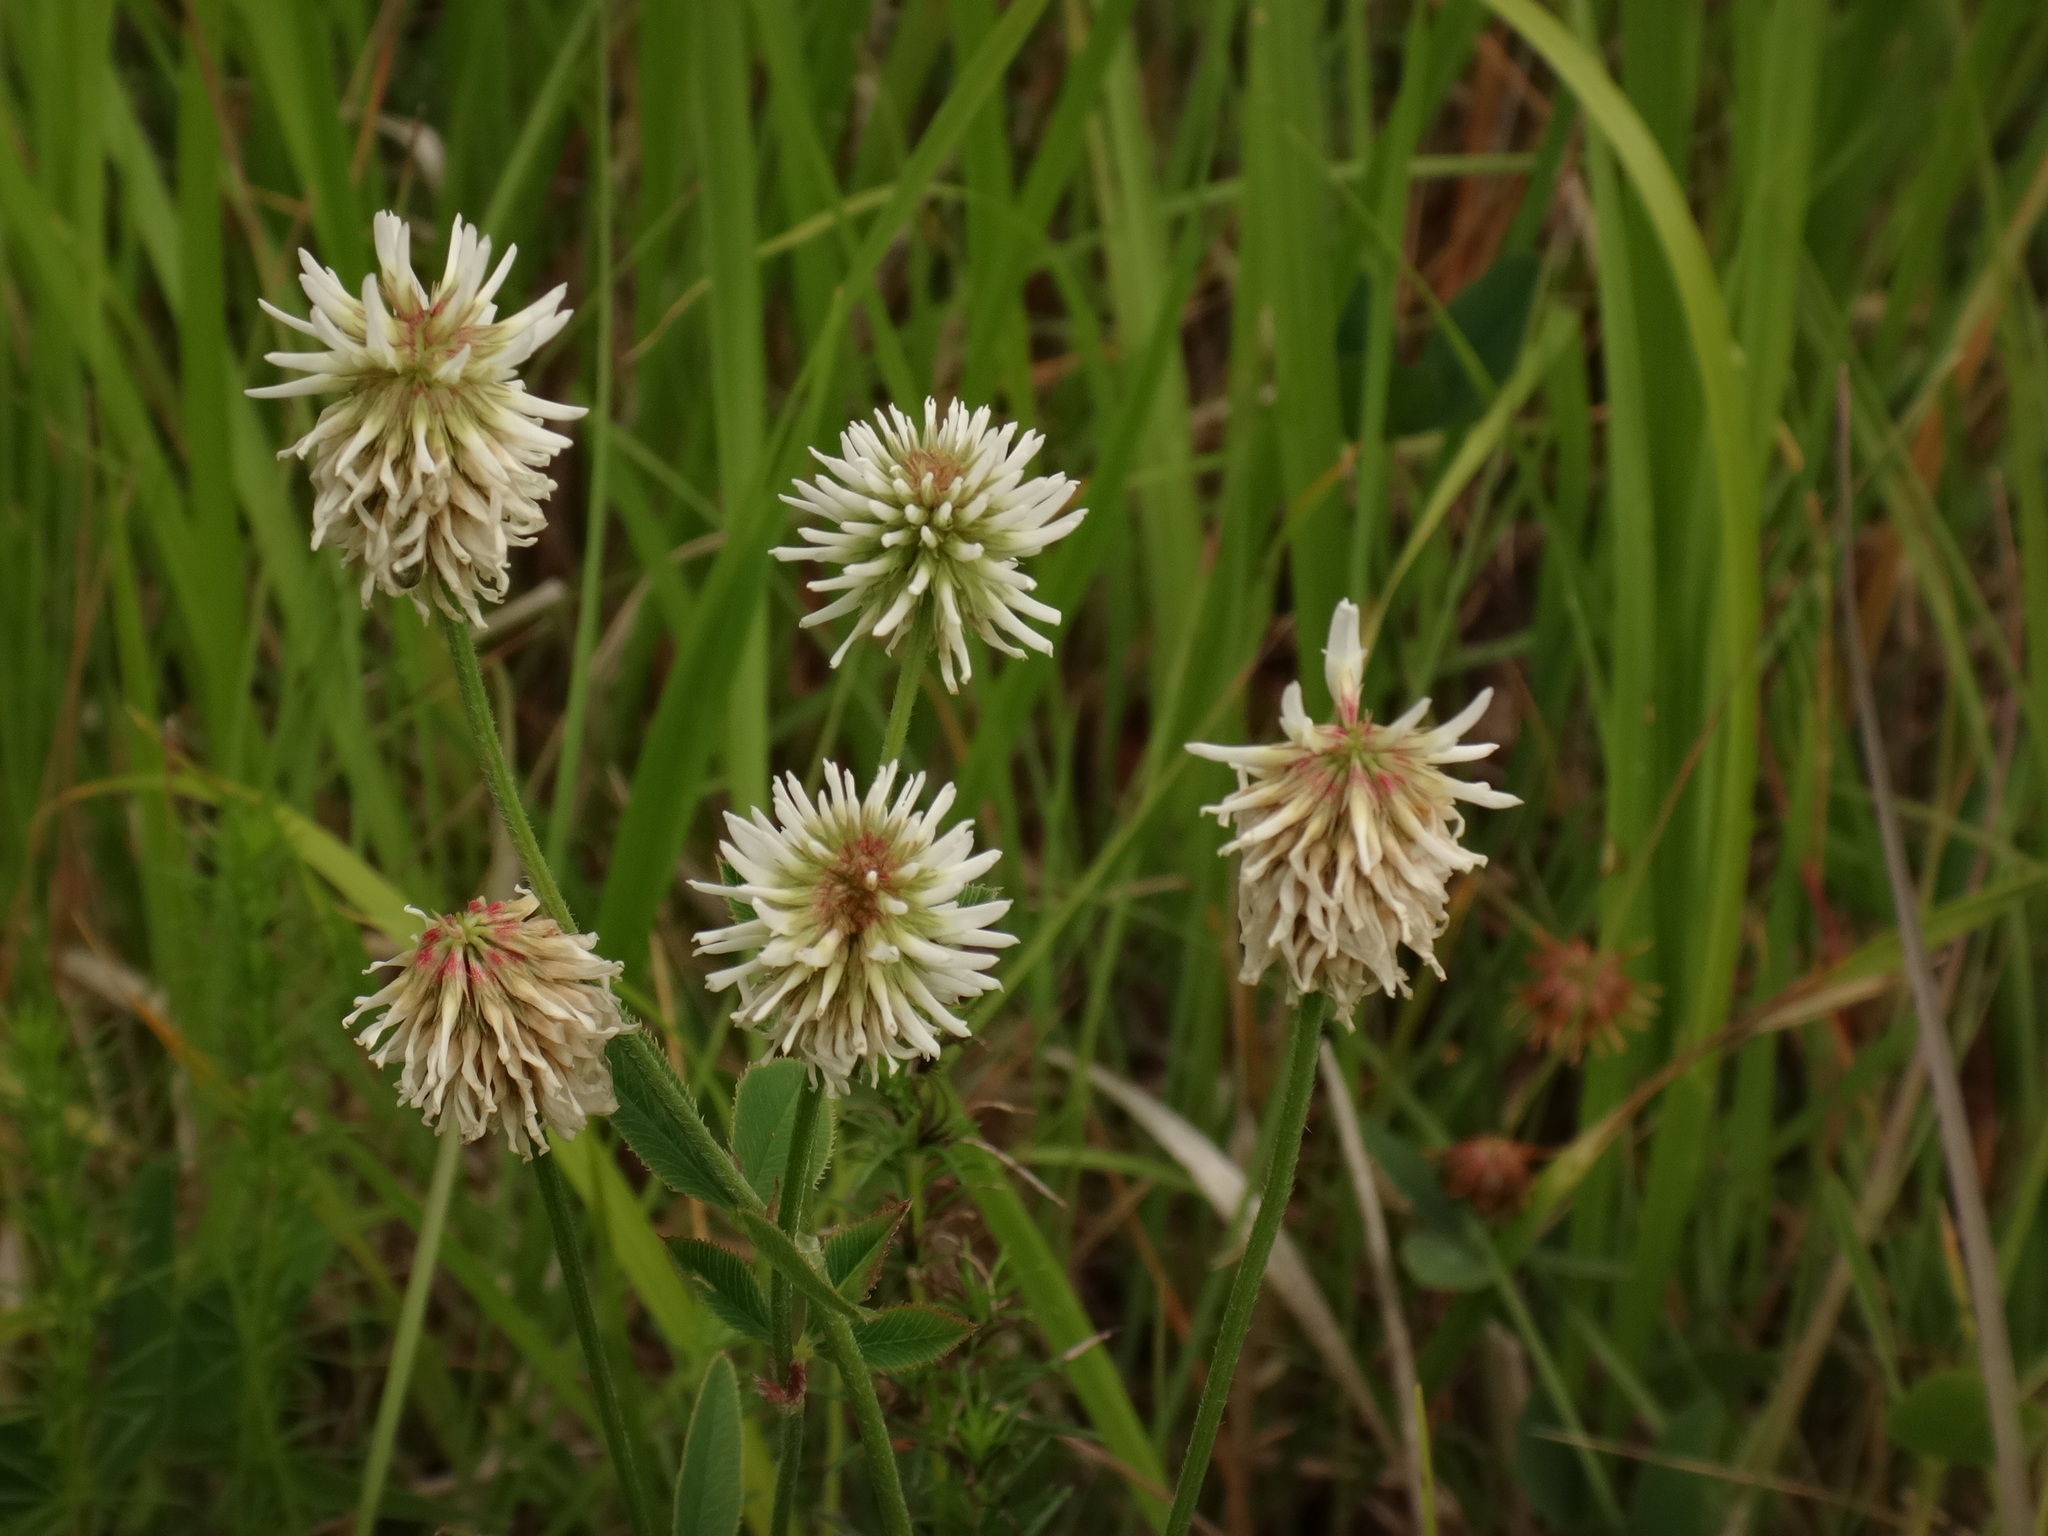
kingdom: Plantae
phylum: Tracheophyta
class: Magnoliopsida
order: Fabales
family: Fabaceae
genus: Trifolium
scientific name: Trifolium montanum
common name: Mountain clover
